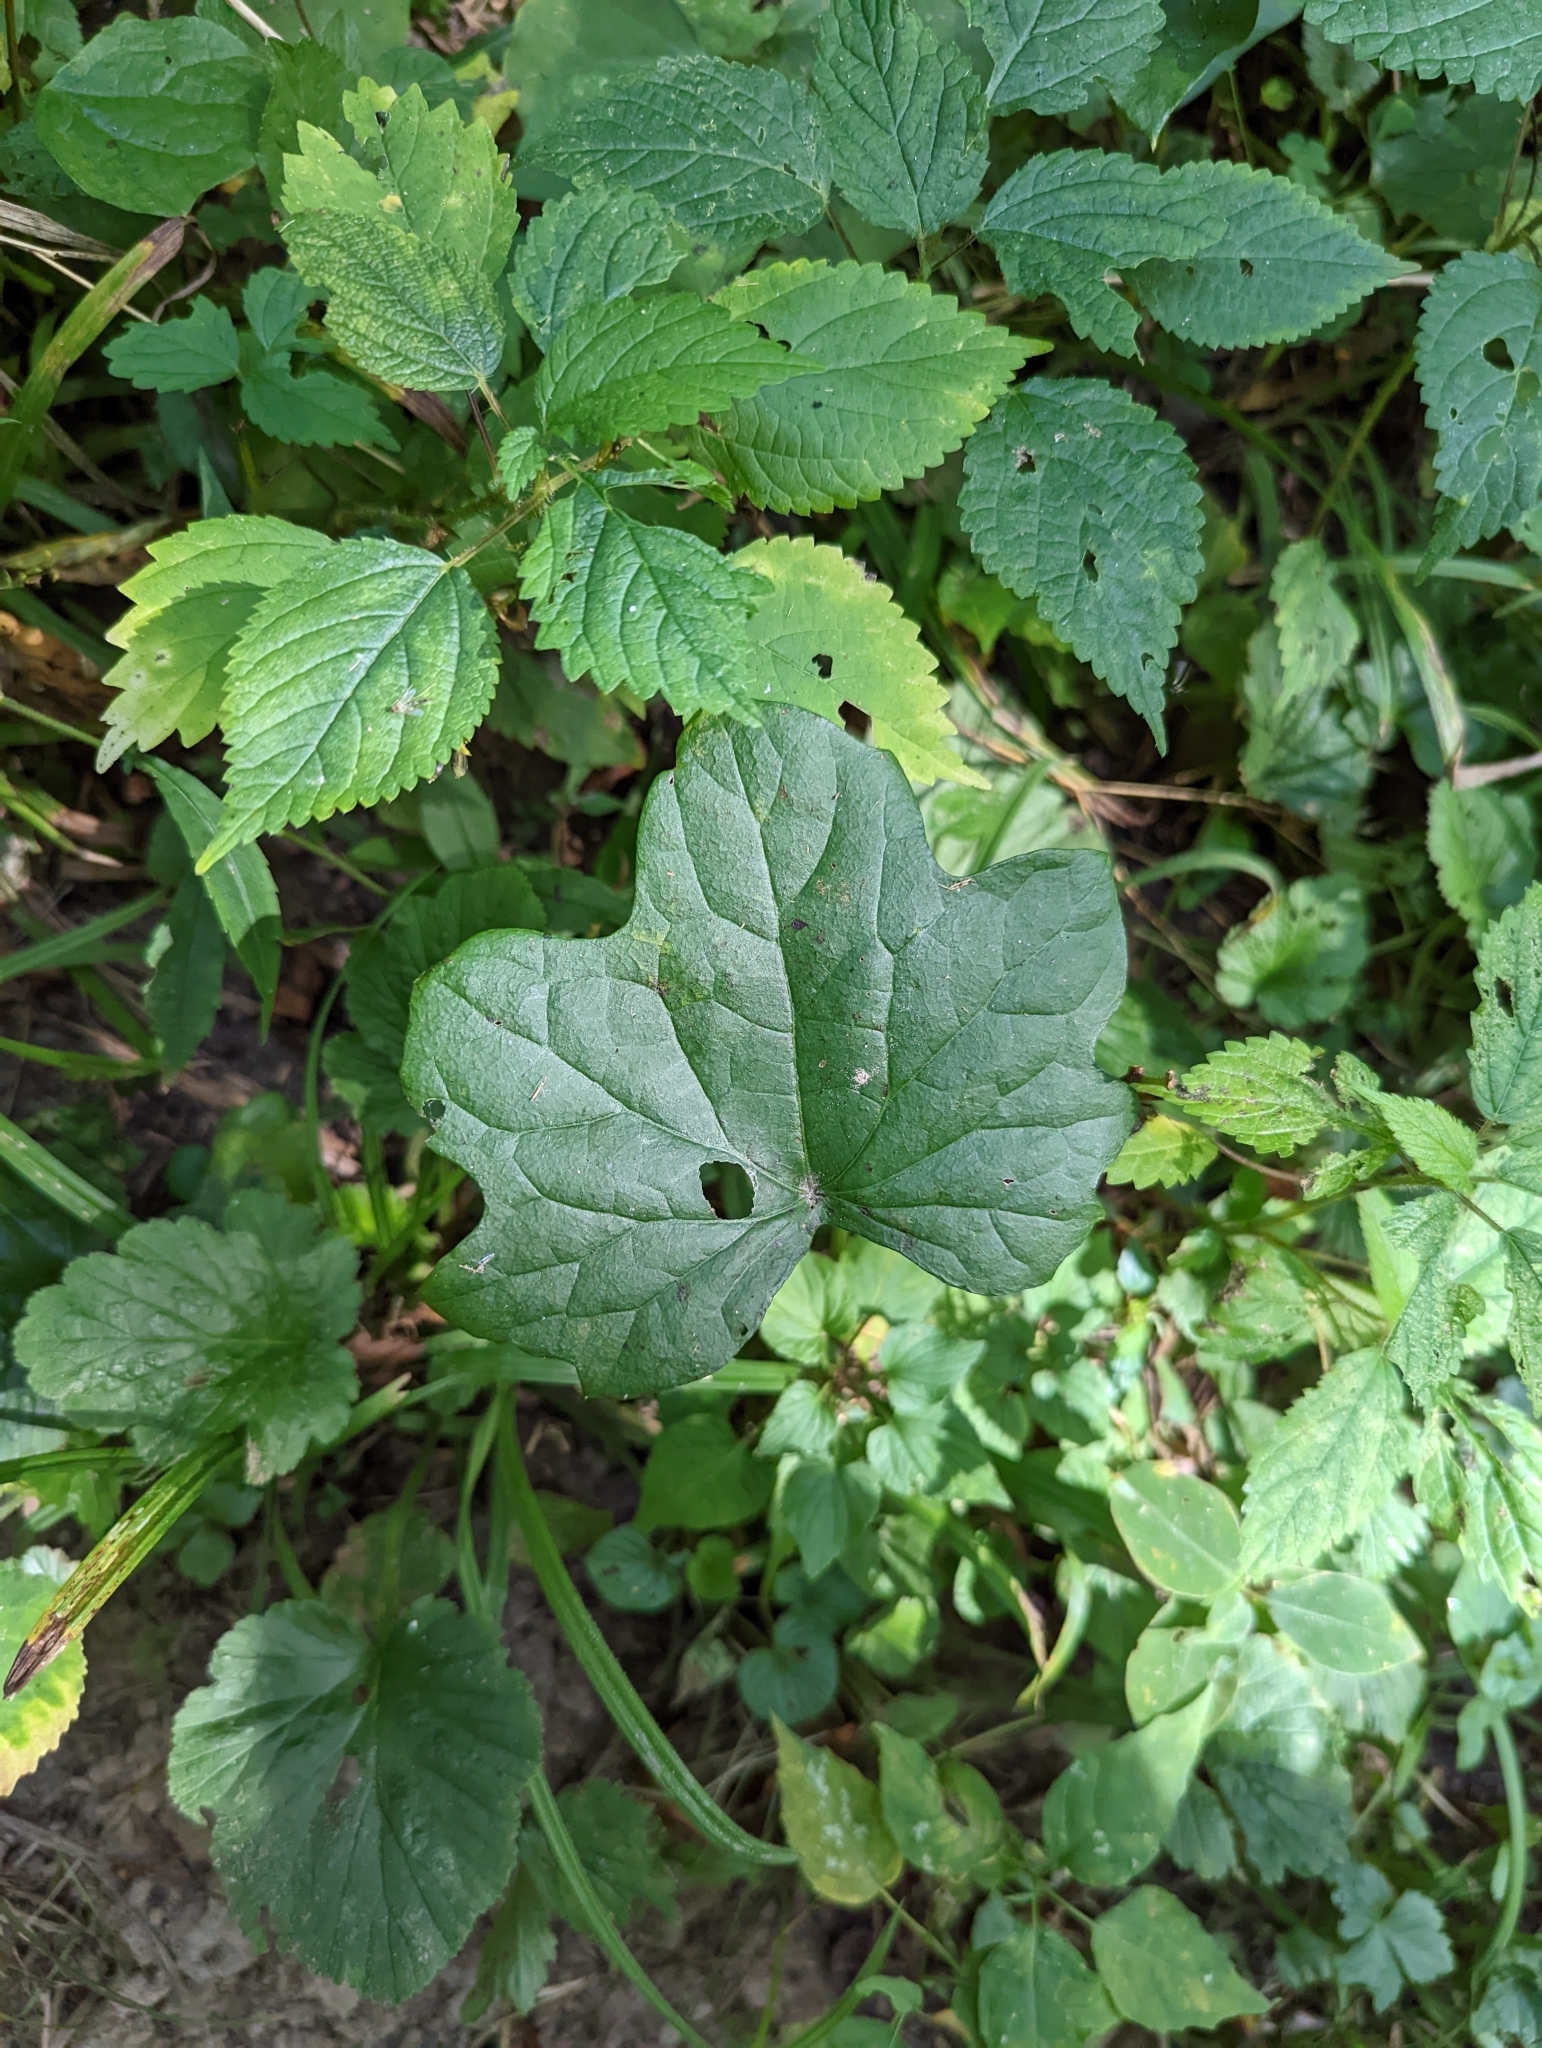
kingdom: Plantae
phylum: Tracheophyta
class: Magnoliopsida
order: Ranunculales
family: Menispermaceae
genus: Menispermum
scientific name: Menispermum canadense
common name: Moonseed
